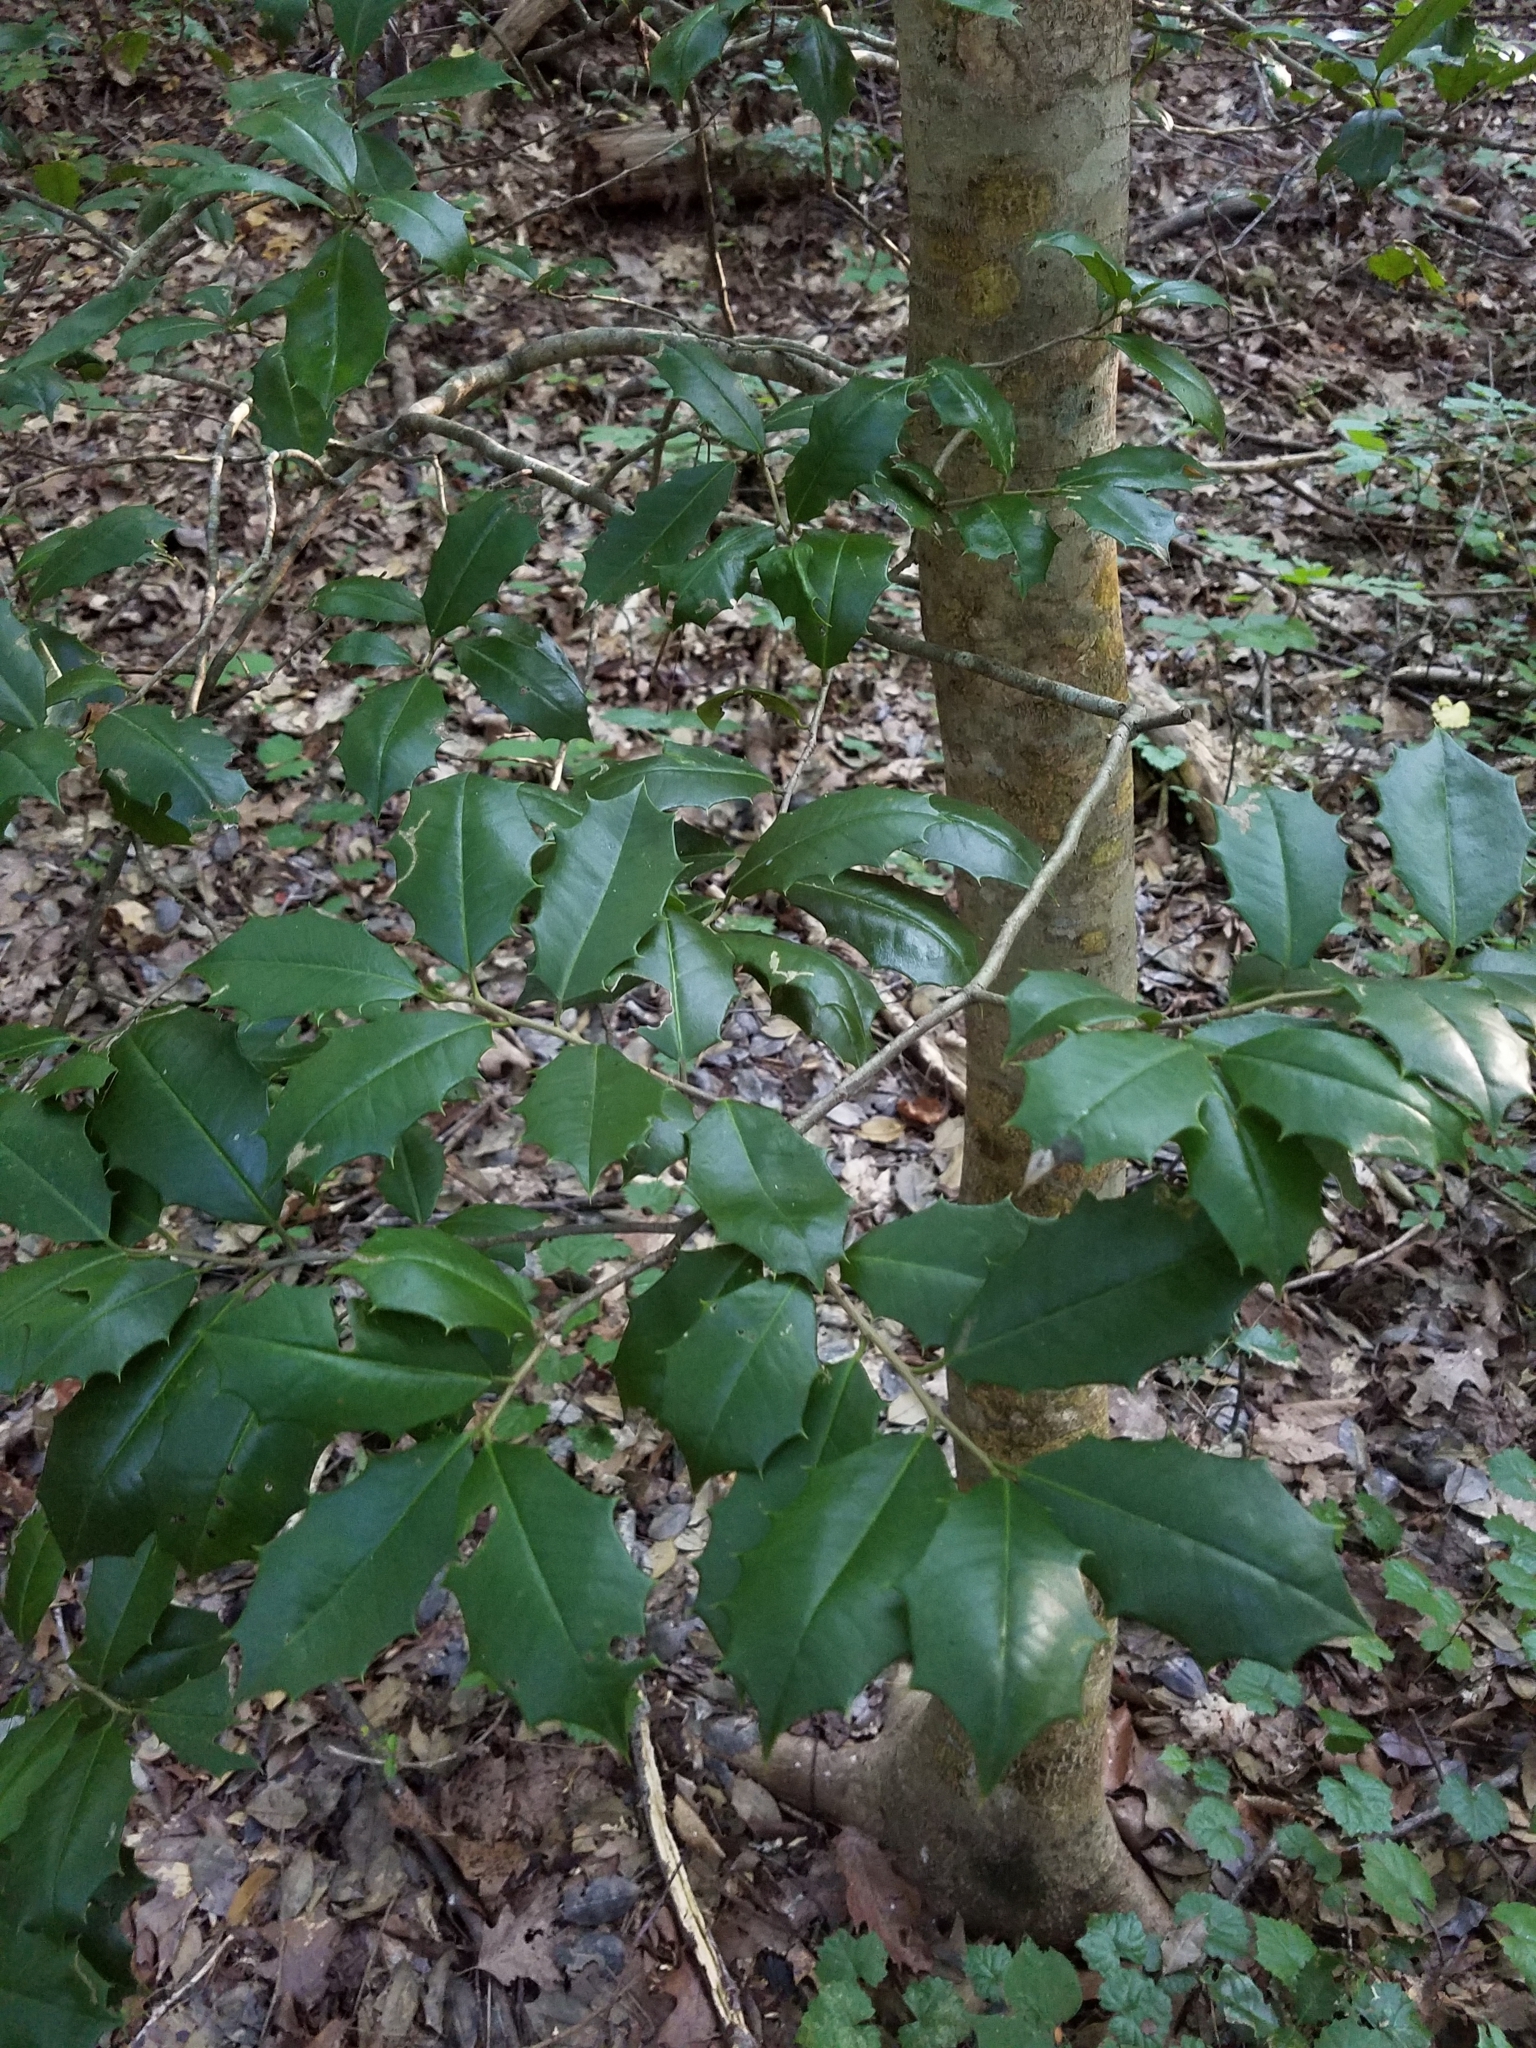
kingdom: Plantae
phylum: Tracheophyta
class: Magnoliopsida
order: Aquifoliales
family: Aquifoliaceae
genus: Ilex
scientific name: Ilex opaca
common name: American holly
